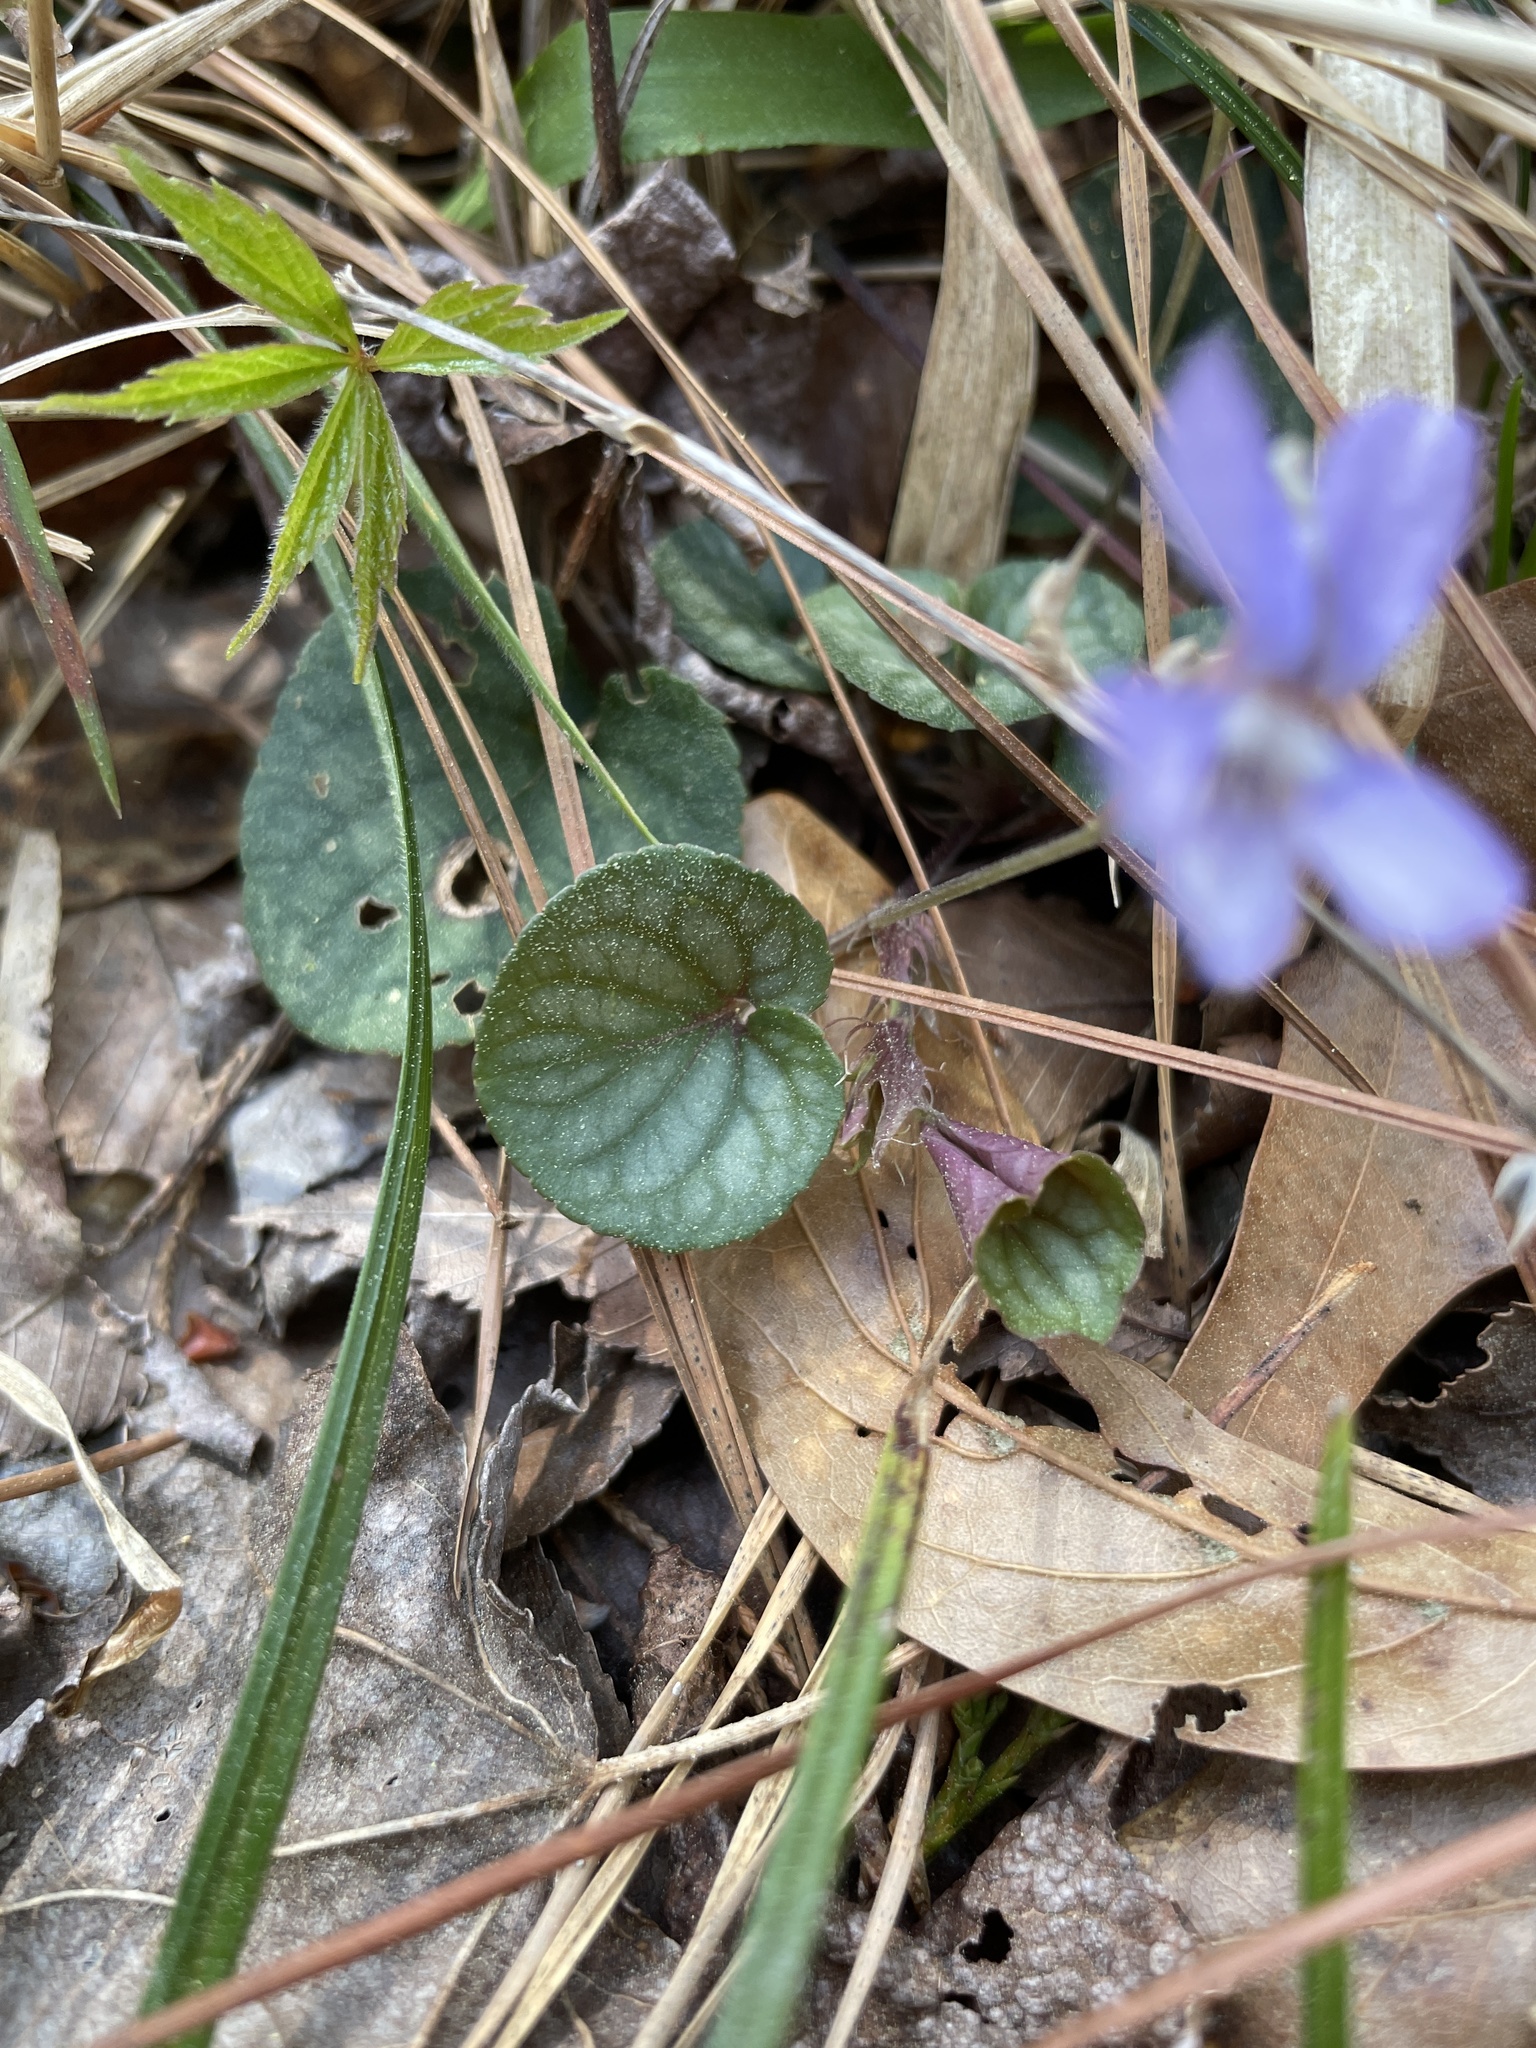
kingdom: Plantae
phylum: Tracheophyta
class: Magnoliopsida
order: Malpighiales
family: Violaceae
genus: Viola
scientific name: Viola walteri
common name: Prostrate southern violet
